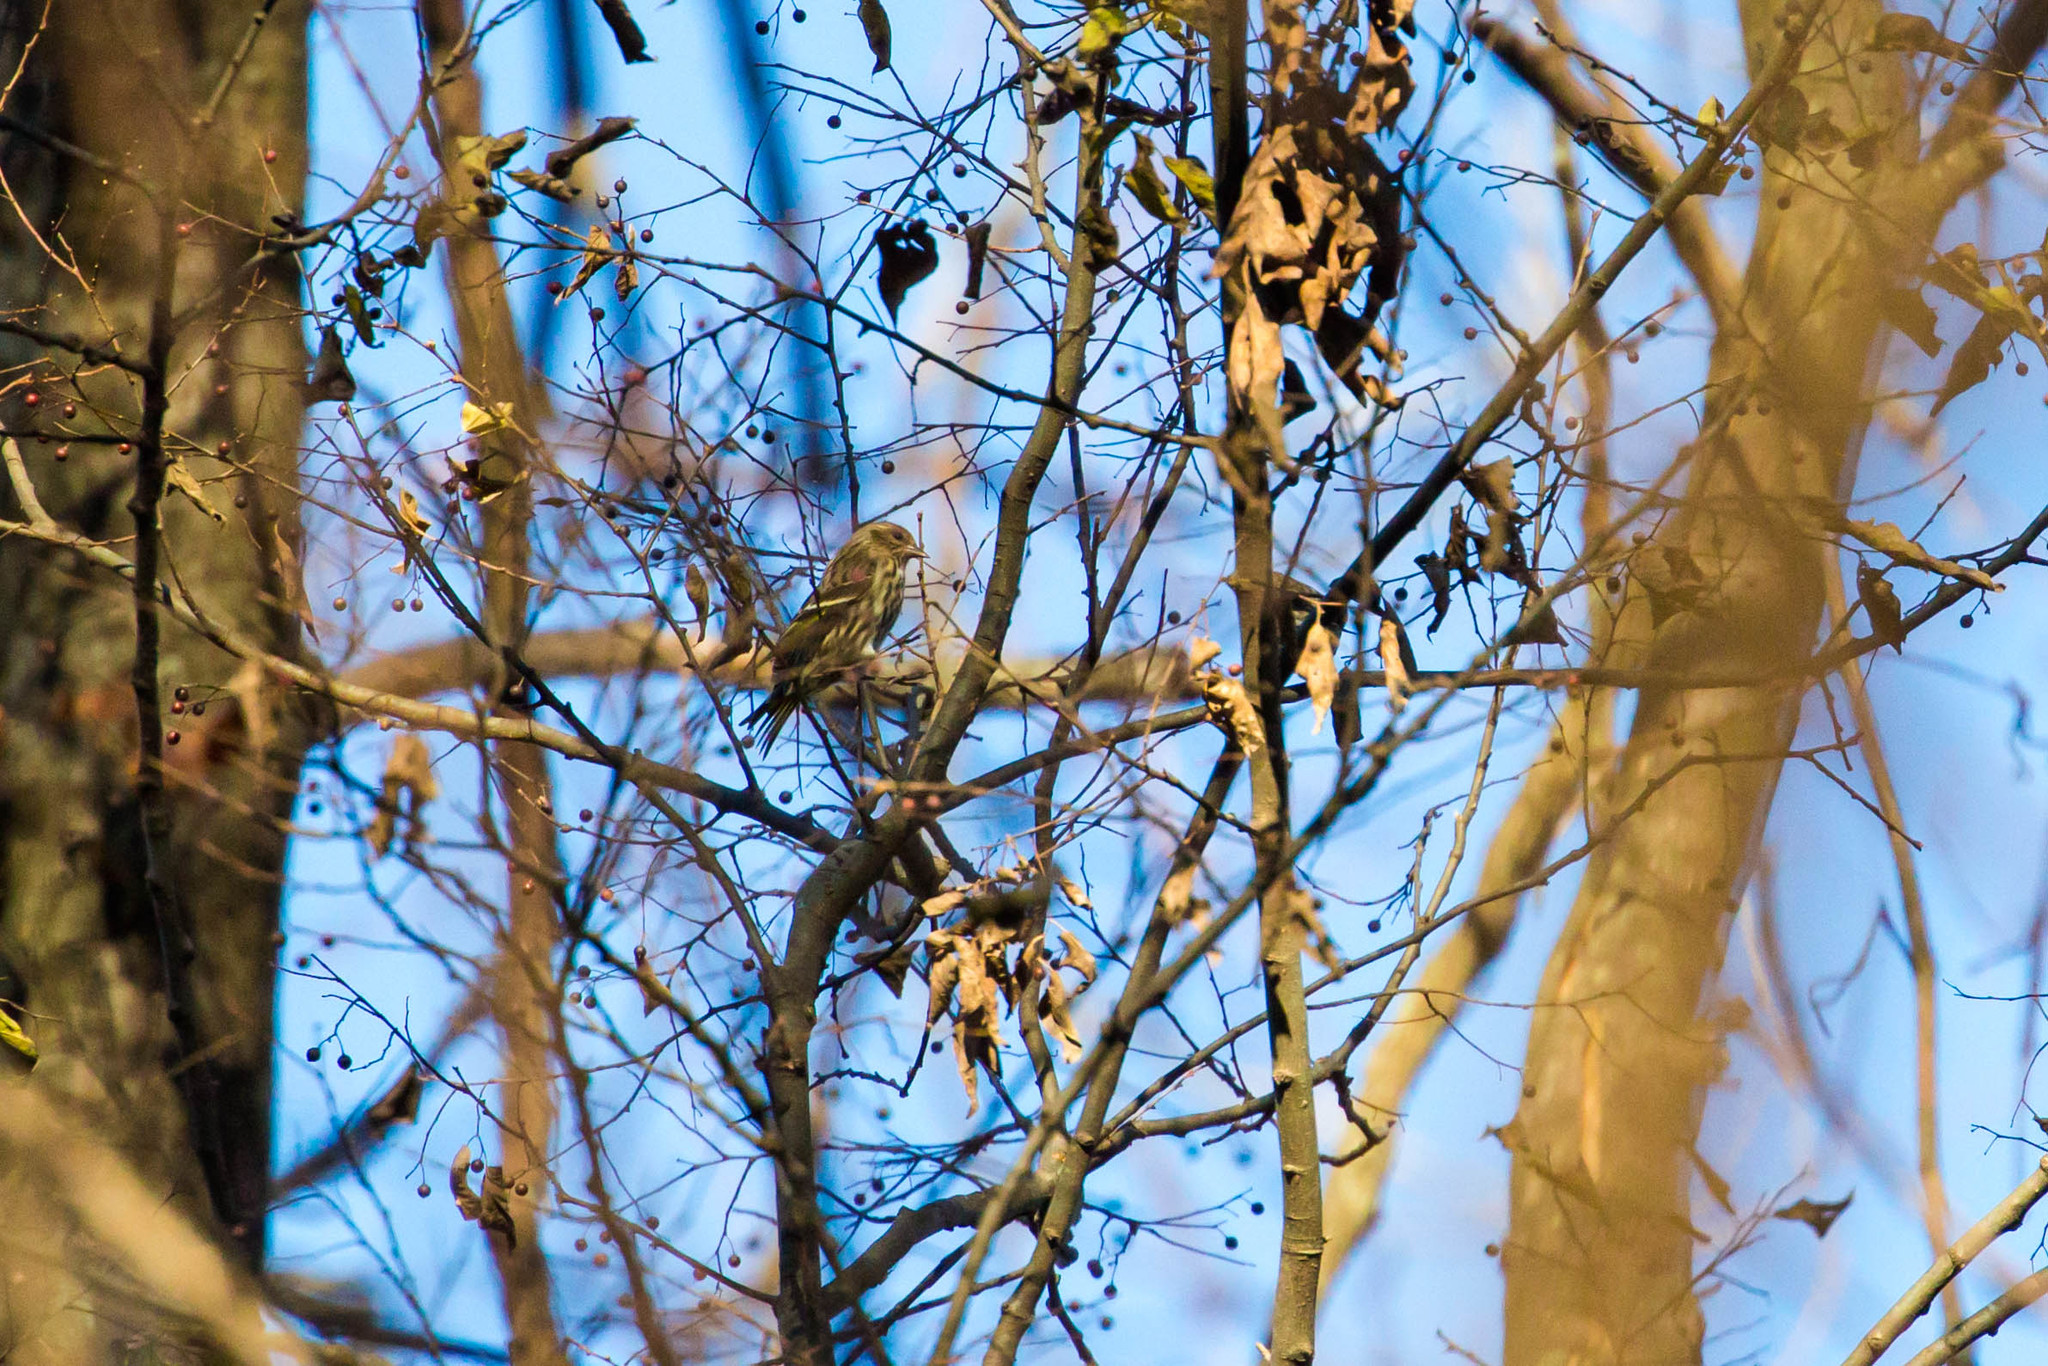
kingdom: Animalia
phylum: Chordata
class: Aves
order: Passeriformes
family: Fringillidae
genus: Spinus
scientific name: Spinus pinus
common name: Pine siskin
